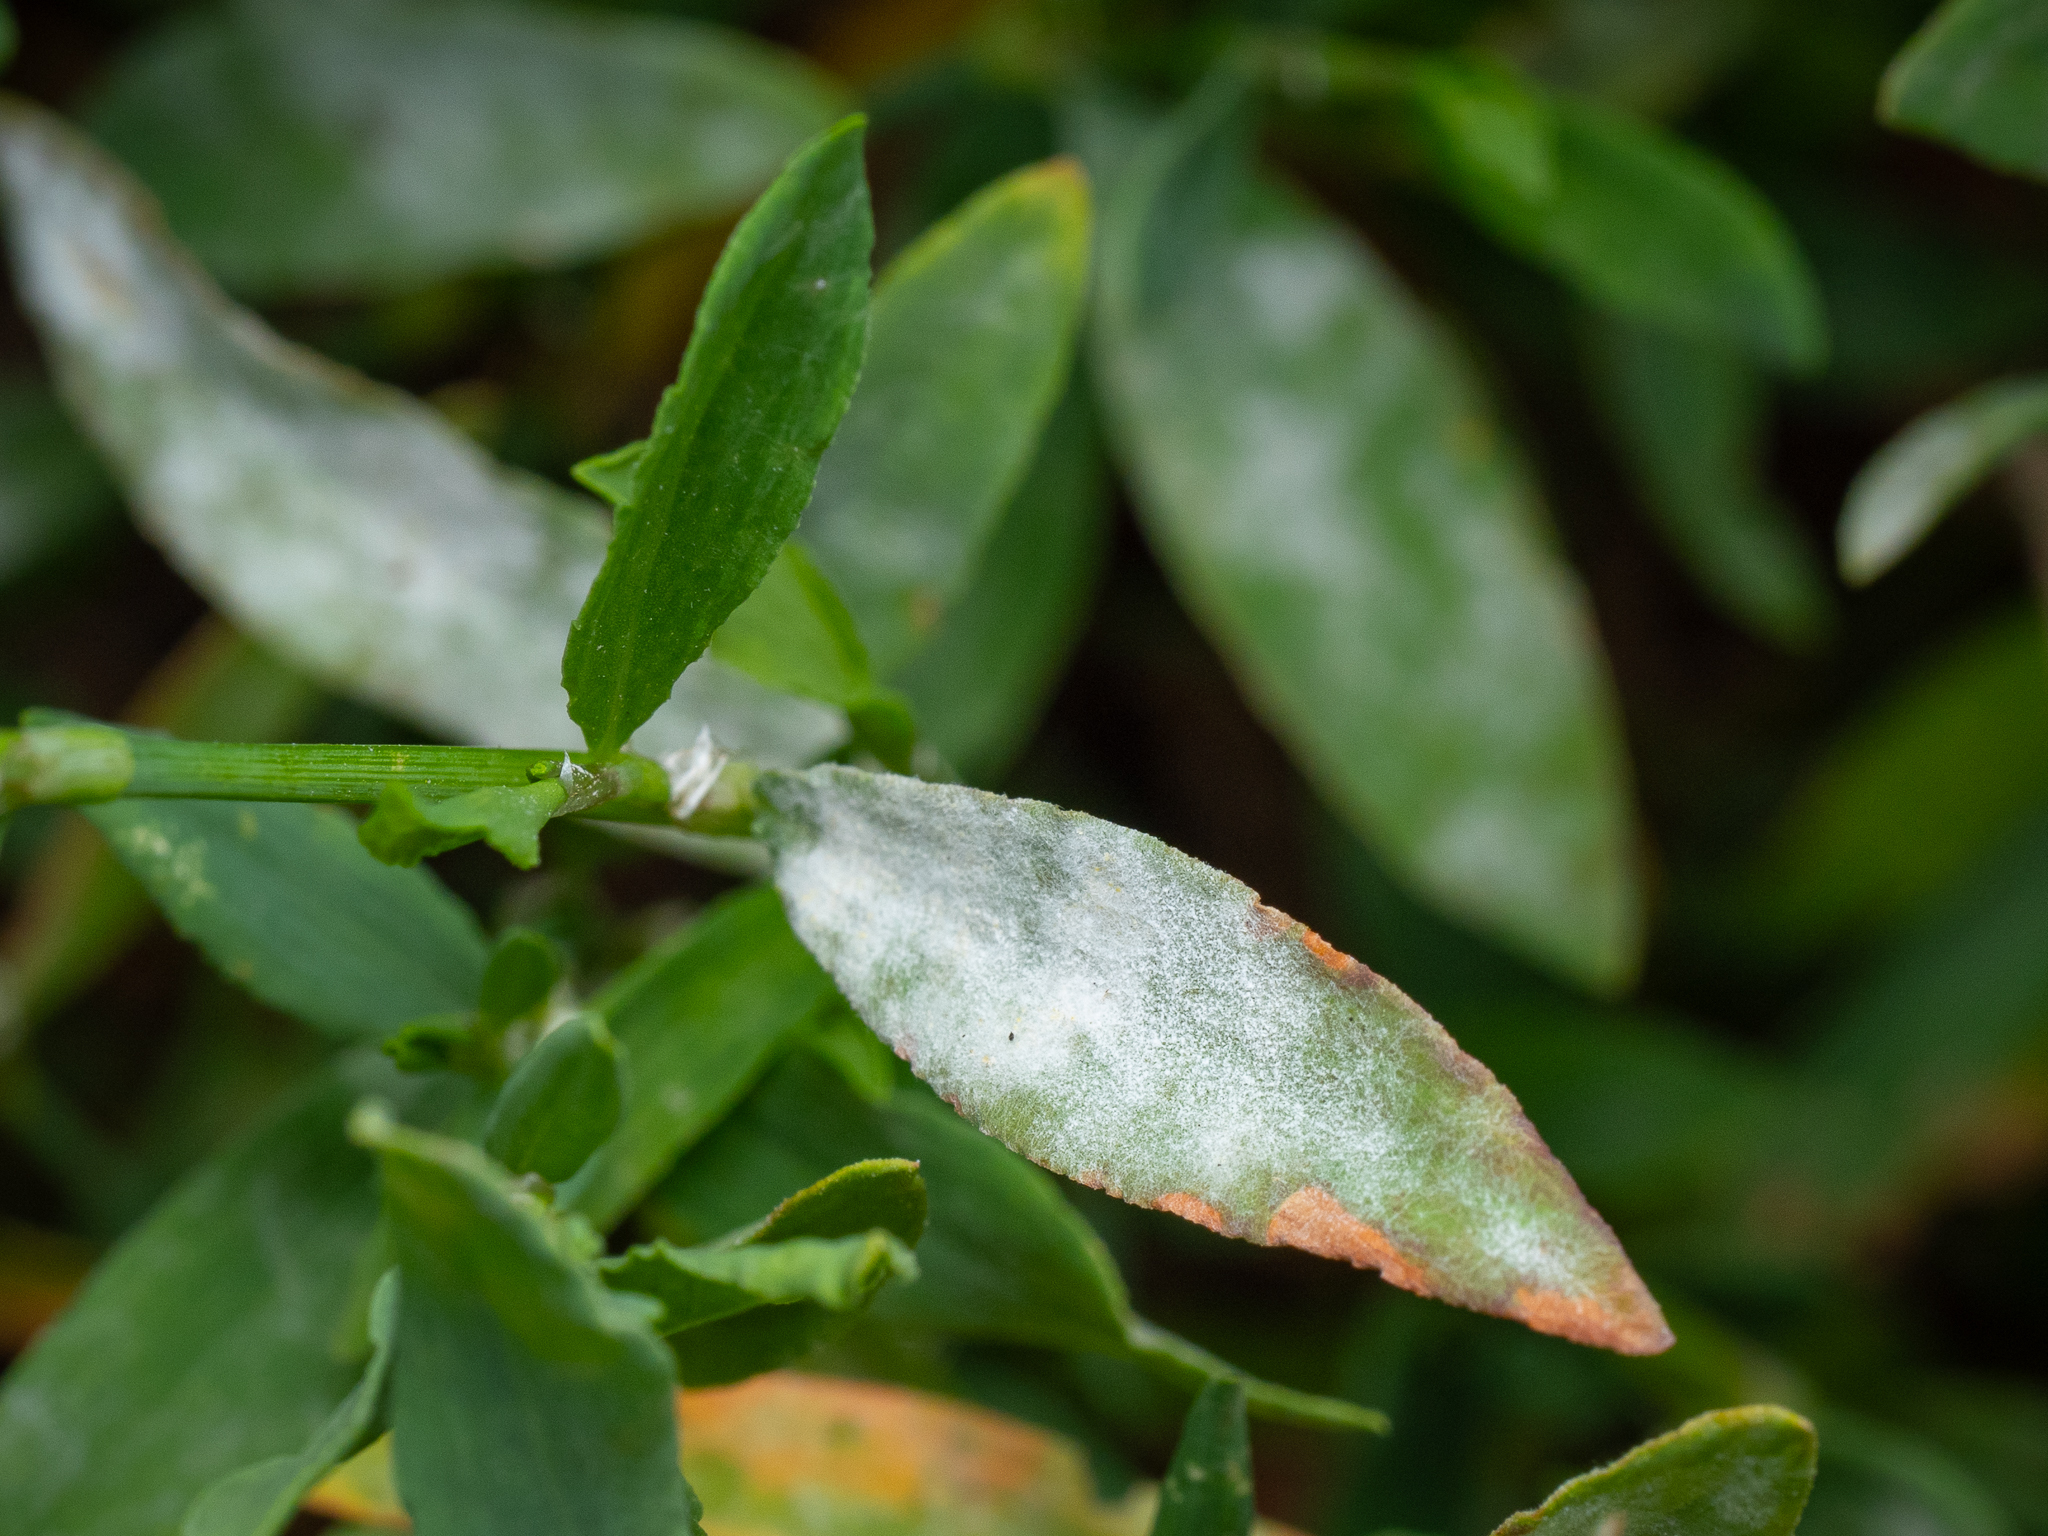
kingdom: Fungi
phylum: Ascomycota
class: Leotiomycetes
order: Helotiales
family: Erysiphaceae
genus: Erysiphe
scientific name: Erysiphe polygoni
